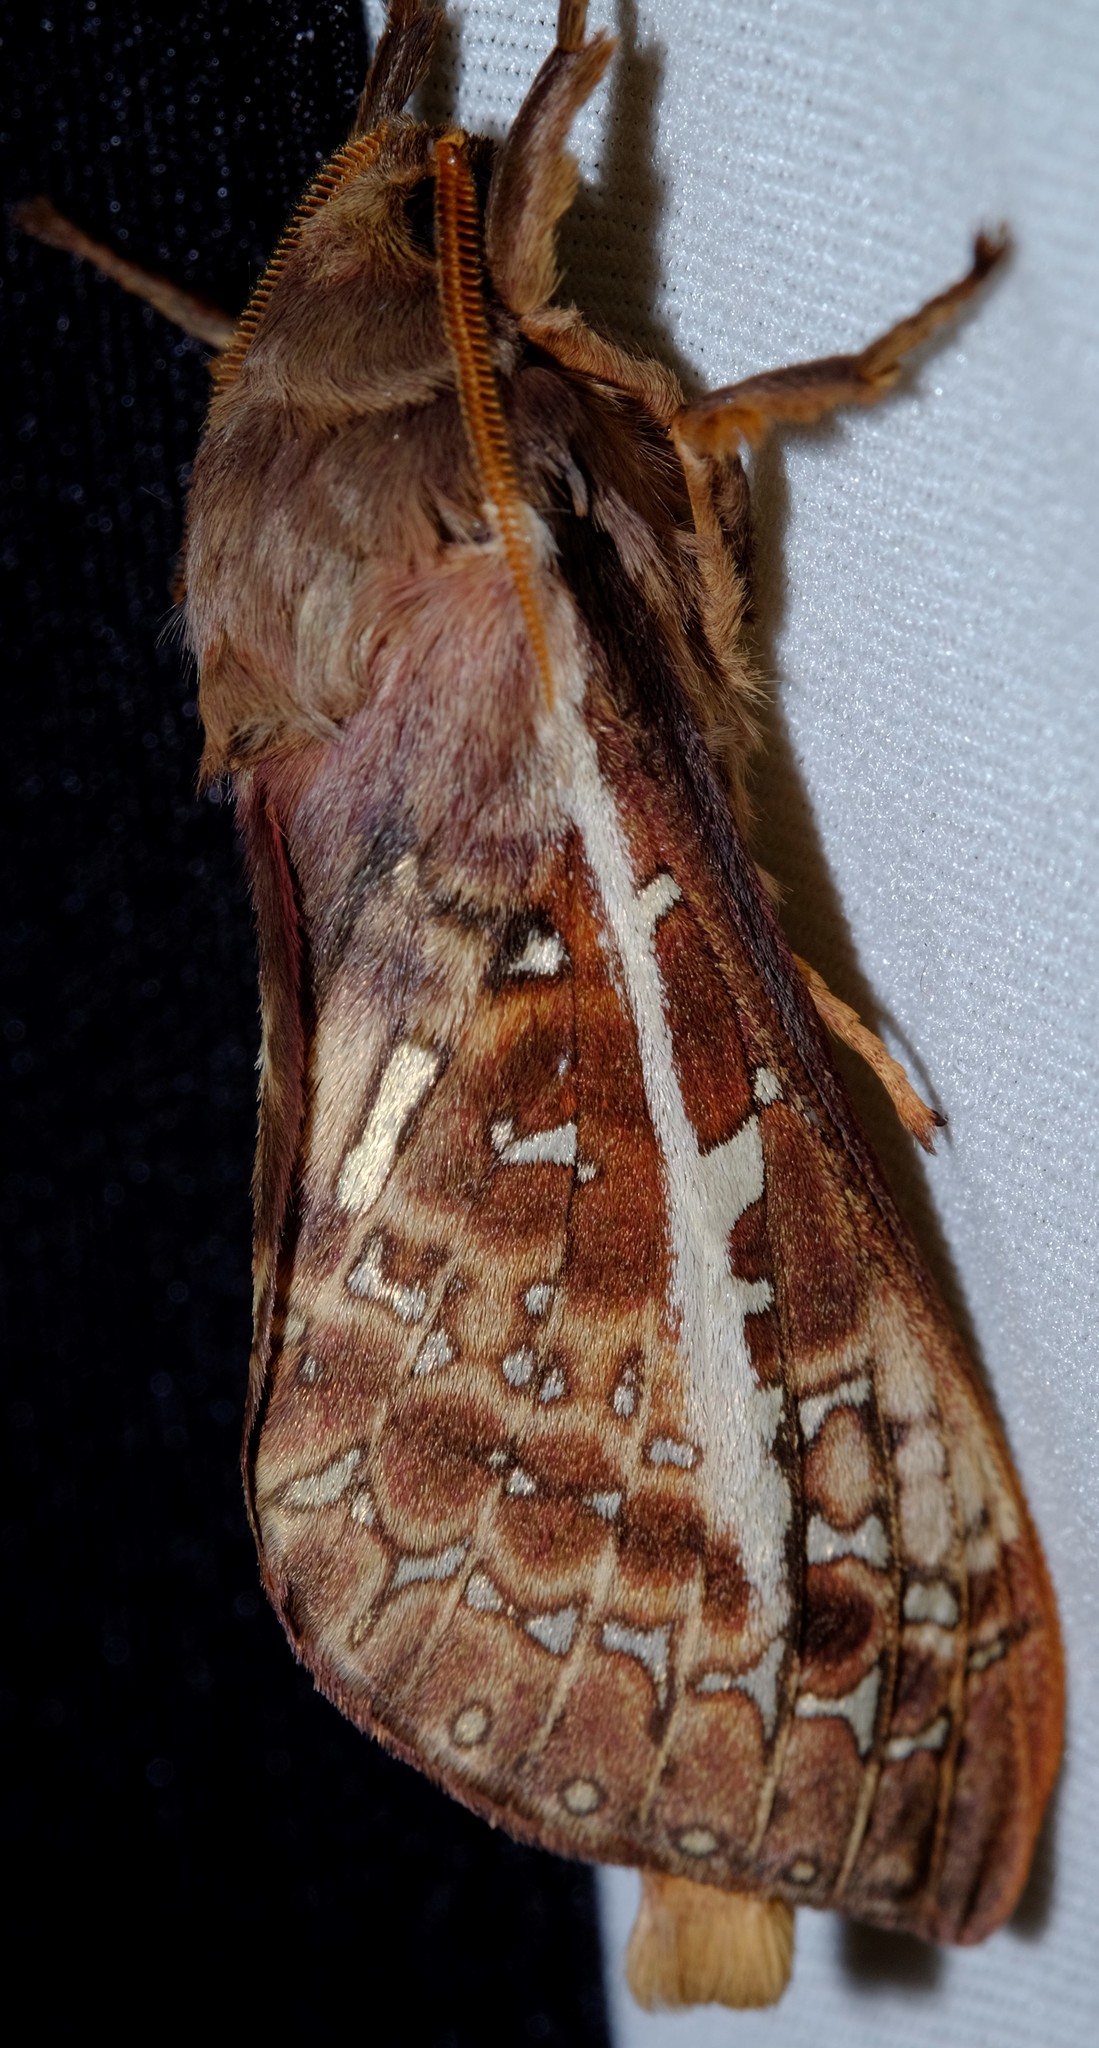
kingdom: Animalia
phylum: Arthropoda
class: Insecta
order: Lepidoptera
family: Hepialidae
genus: Oxycanus
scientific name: Oxycanus australis
